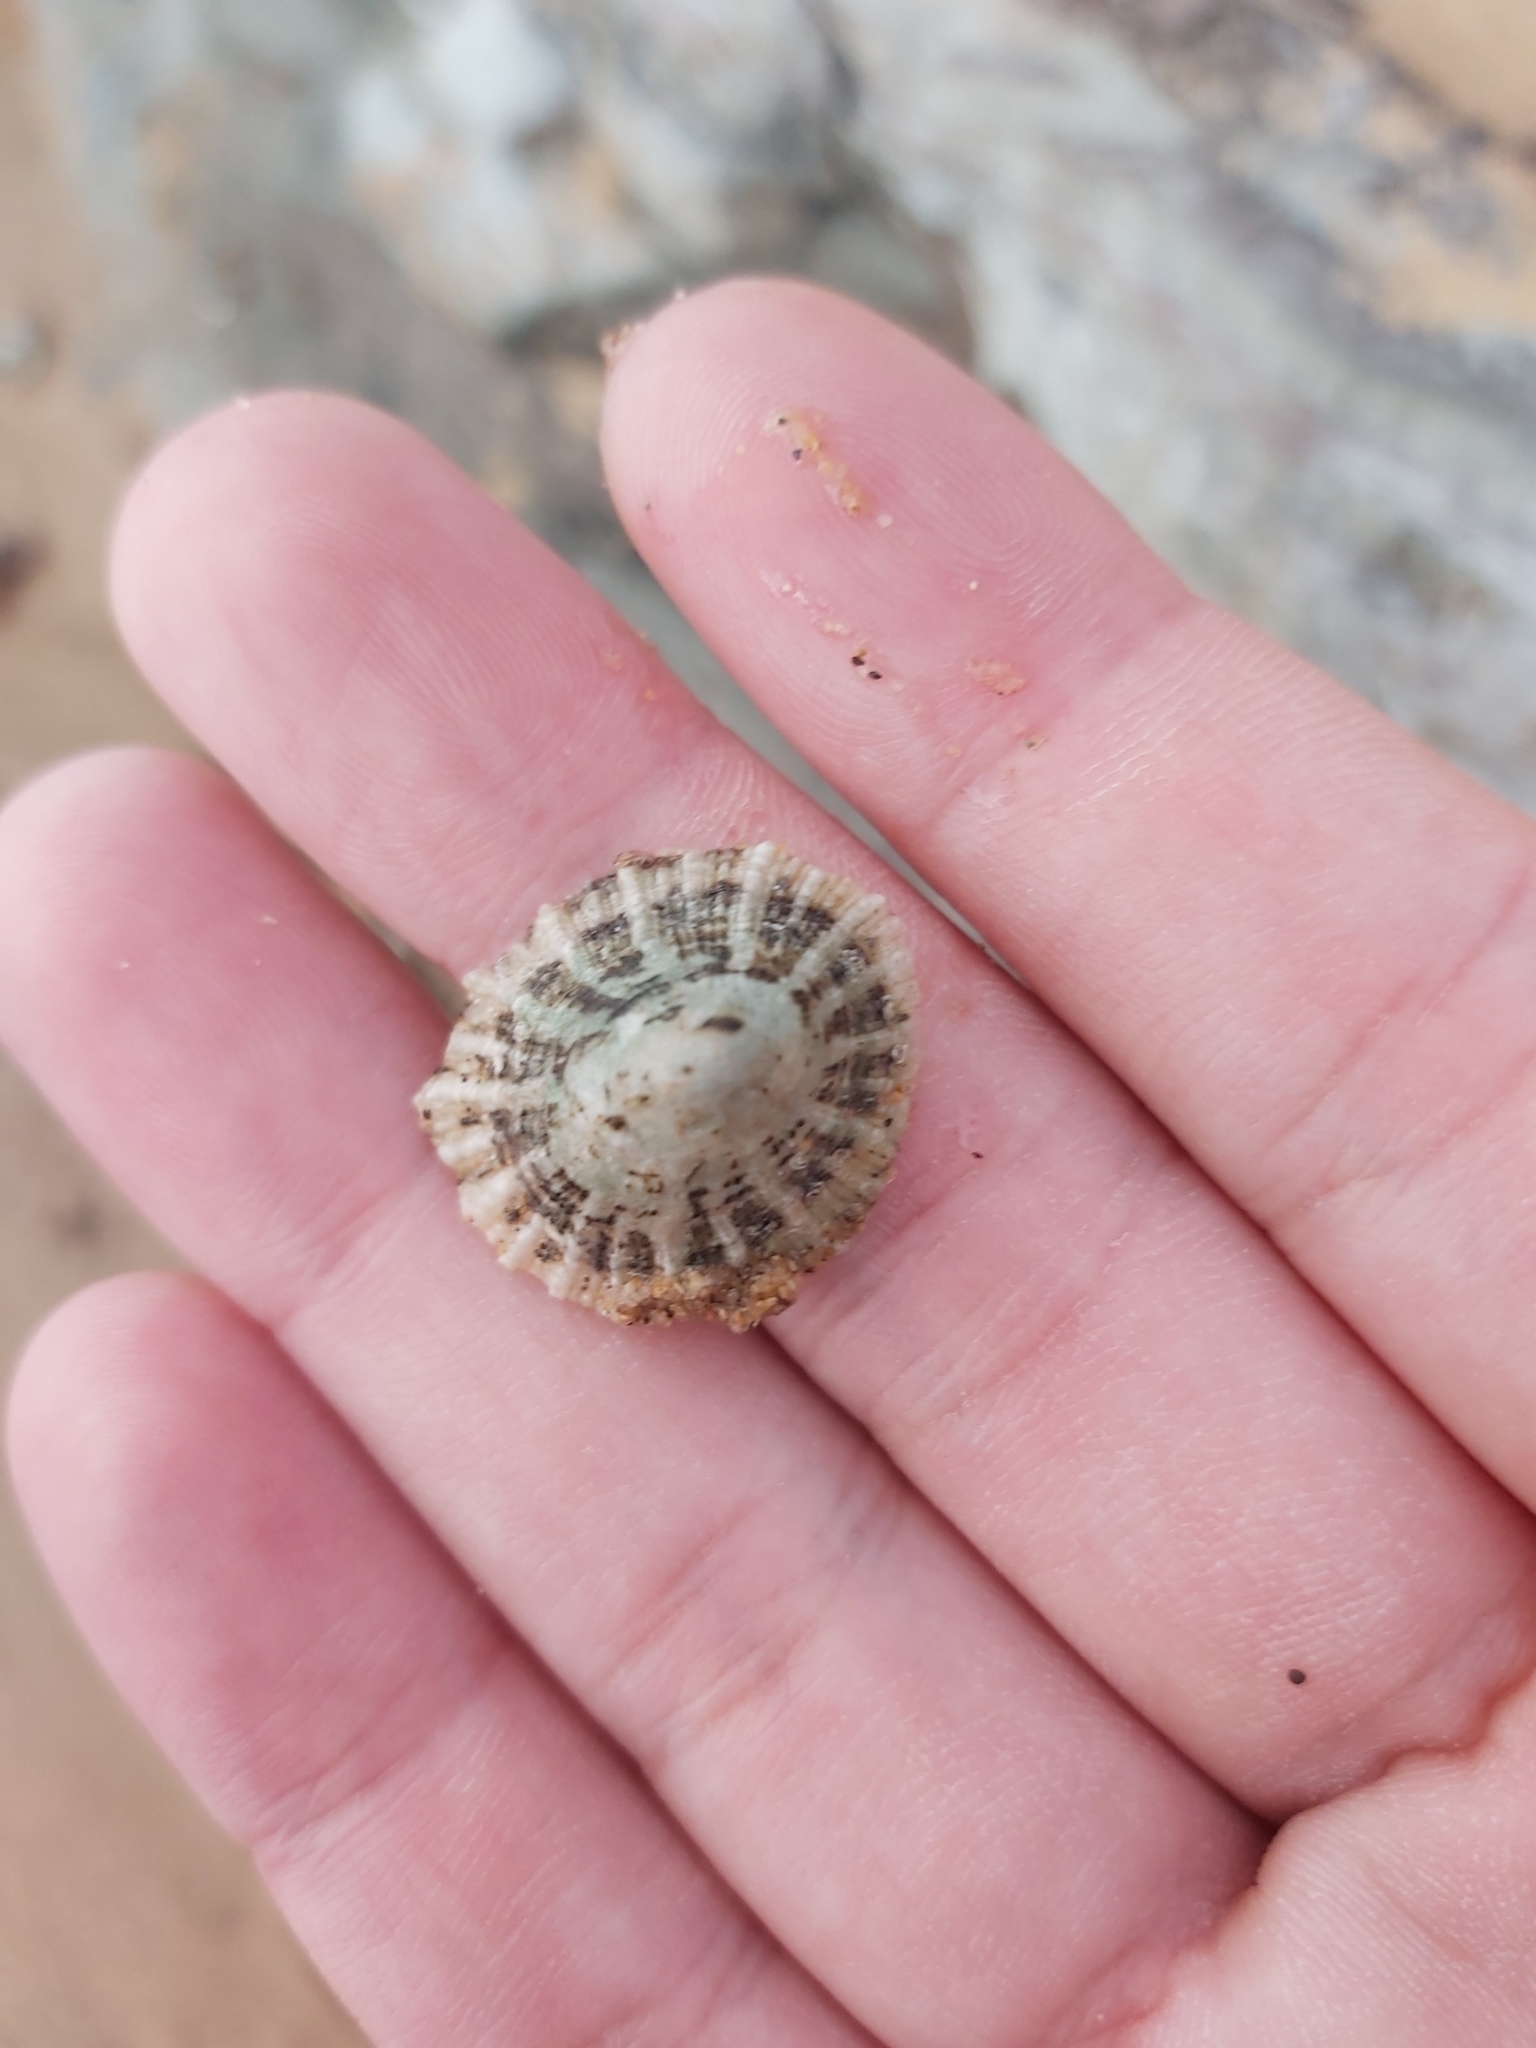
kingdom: Animalia
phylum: Mollusca
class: Gastropoda
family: Patellidae
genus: Scutellastra
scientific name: Scutellastra peronii
